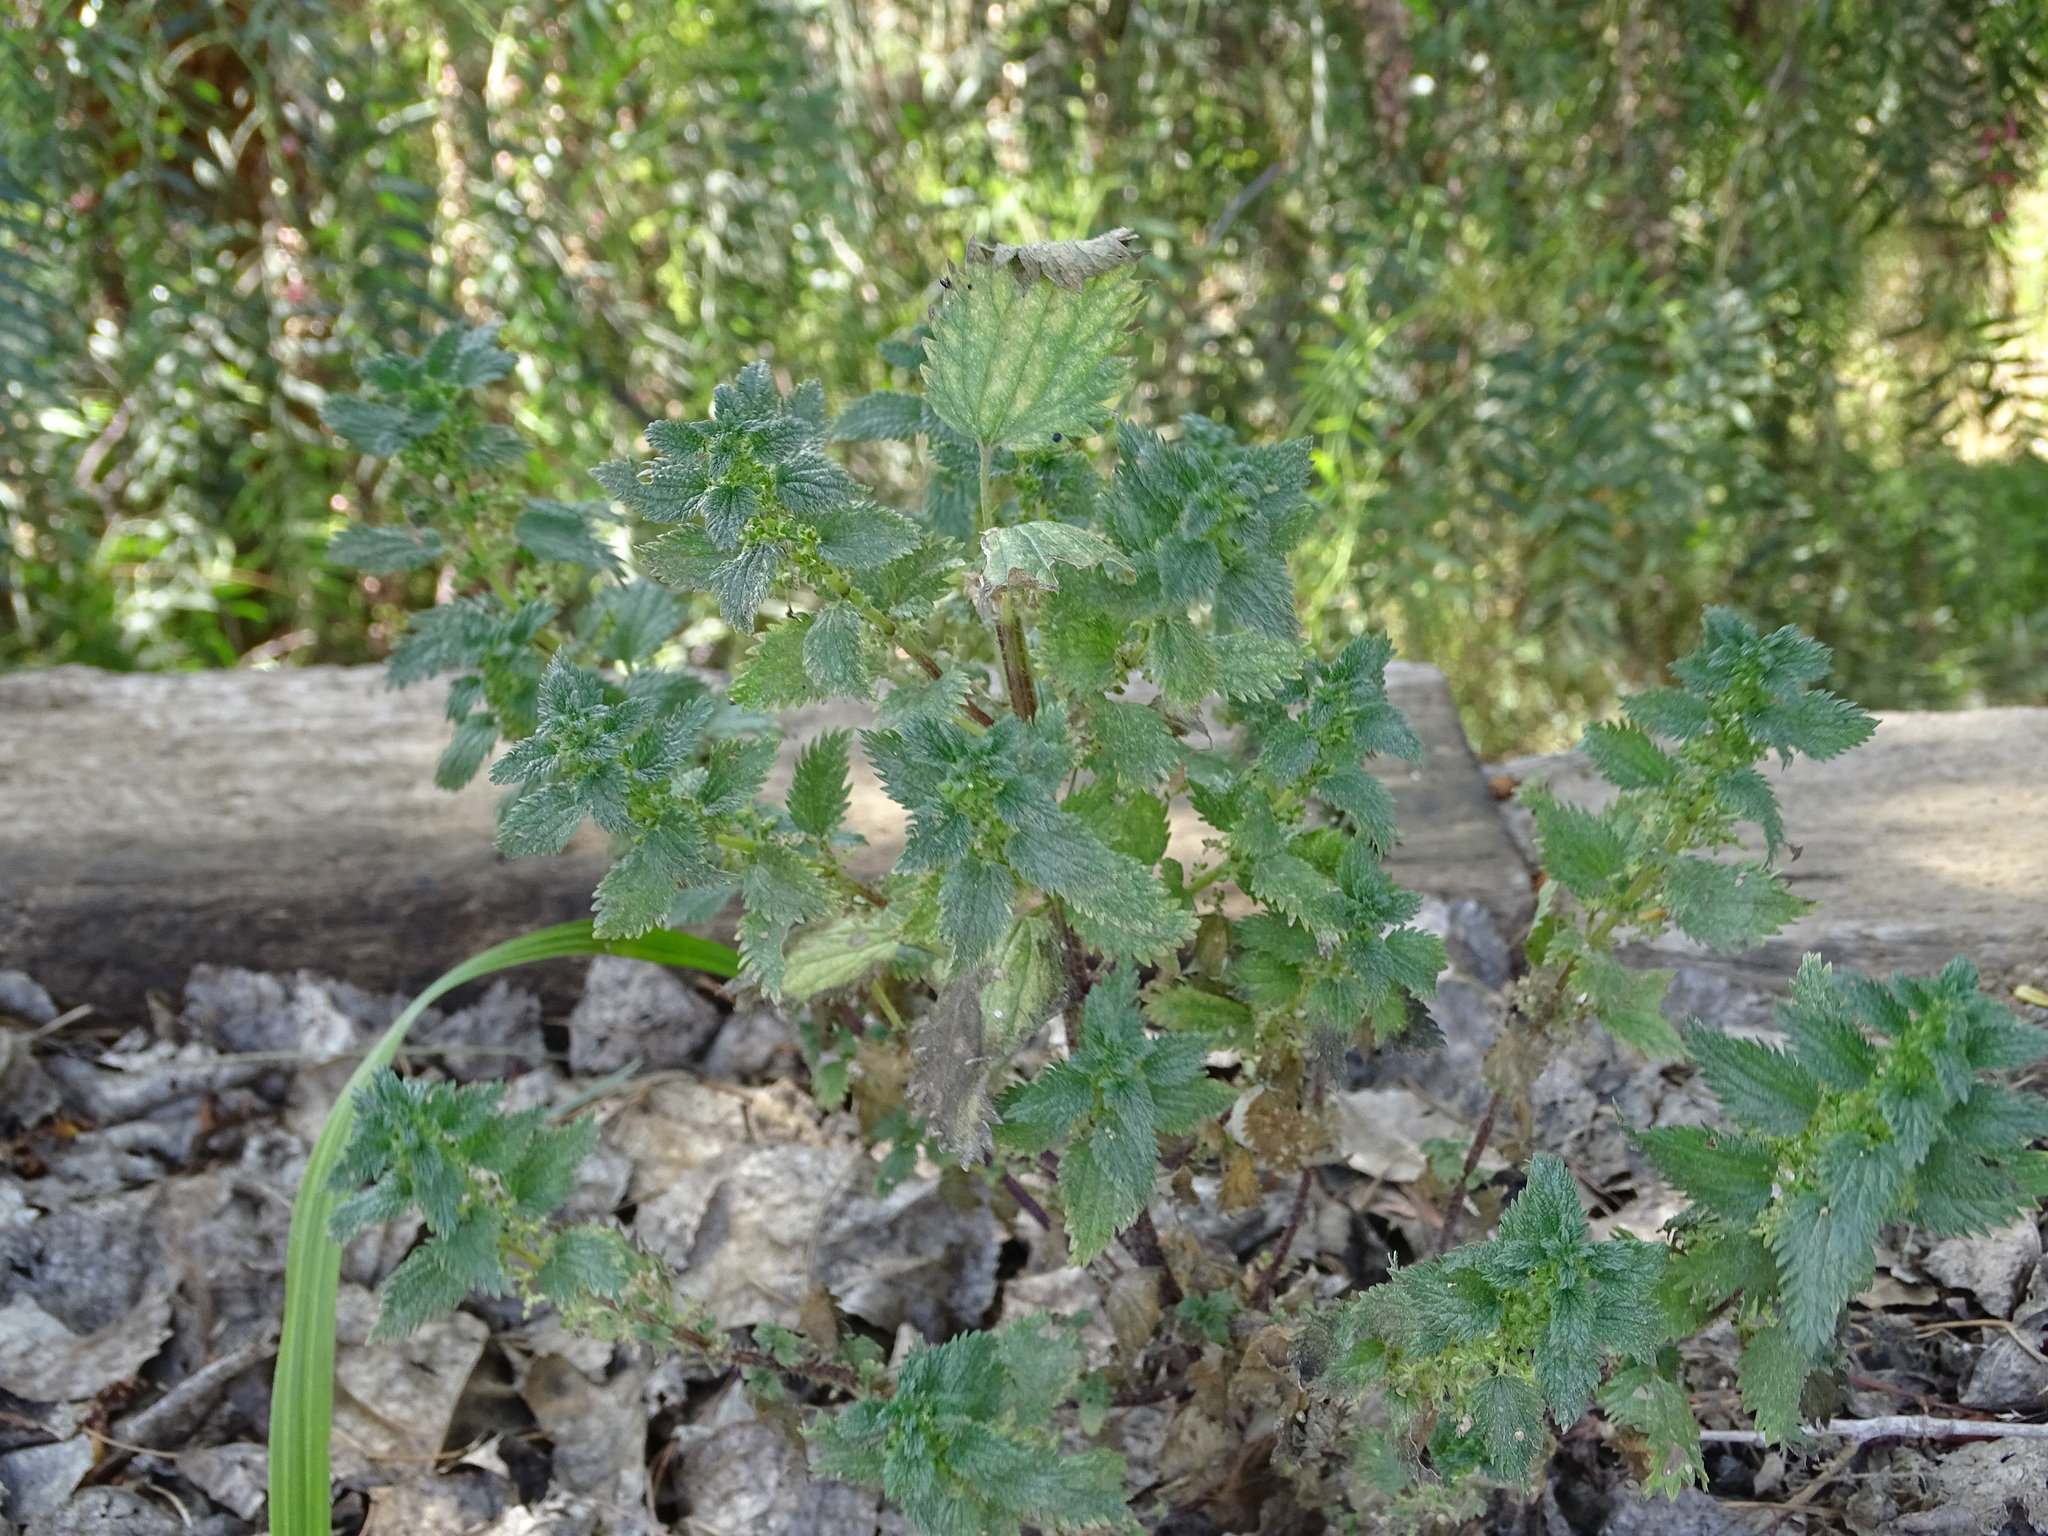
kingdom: Plantae
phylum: Tracheophyta
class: Magnoliopsida
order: Rosales
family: Urticaceae
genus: Urtica
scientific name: Urtica urens
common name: Dwarf nettle
